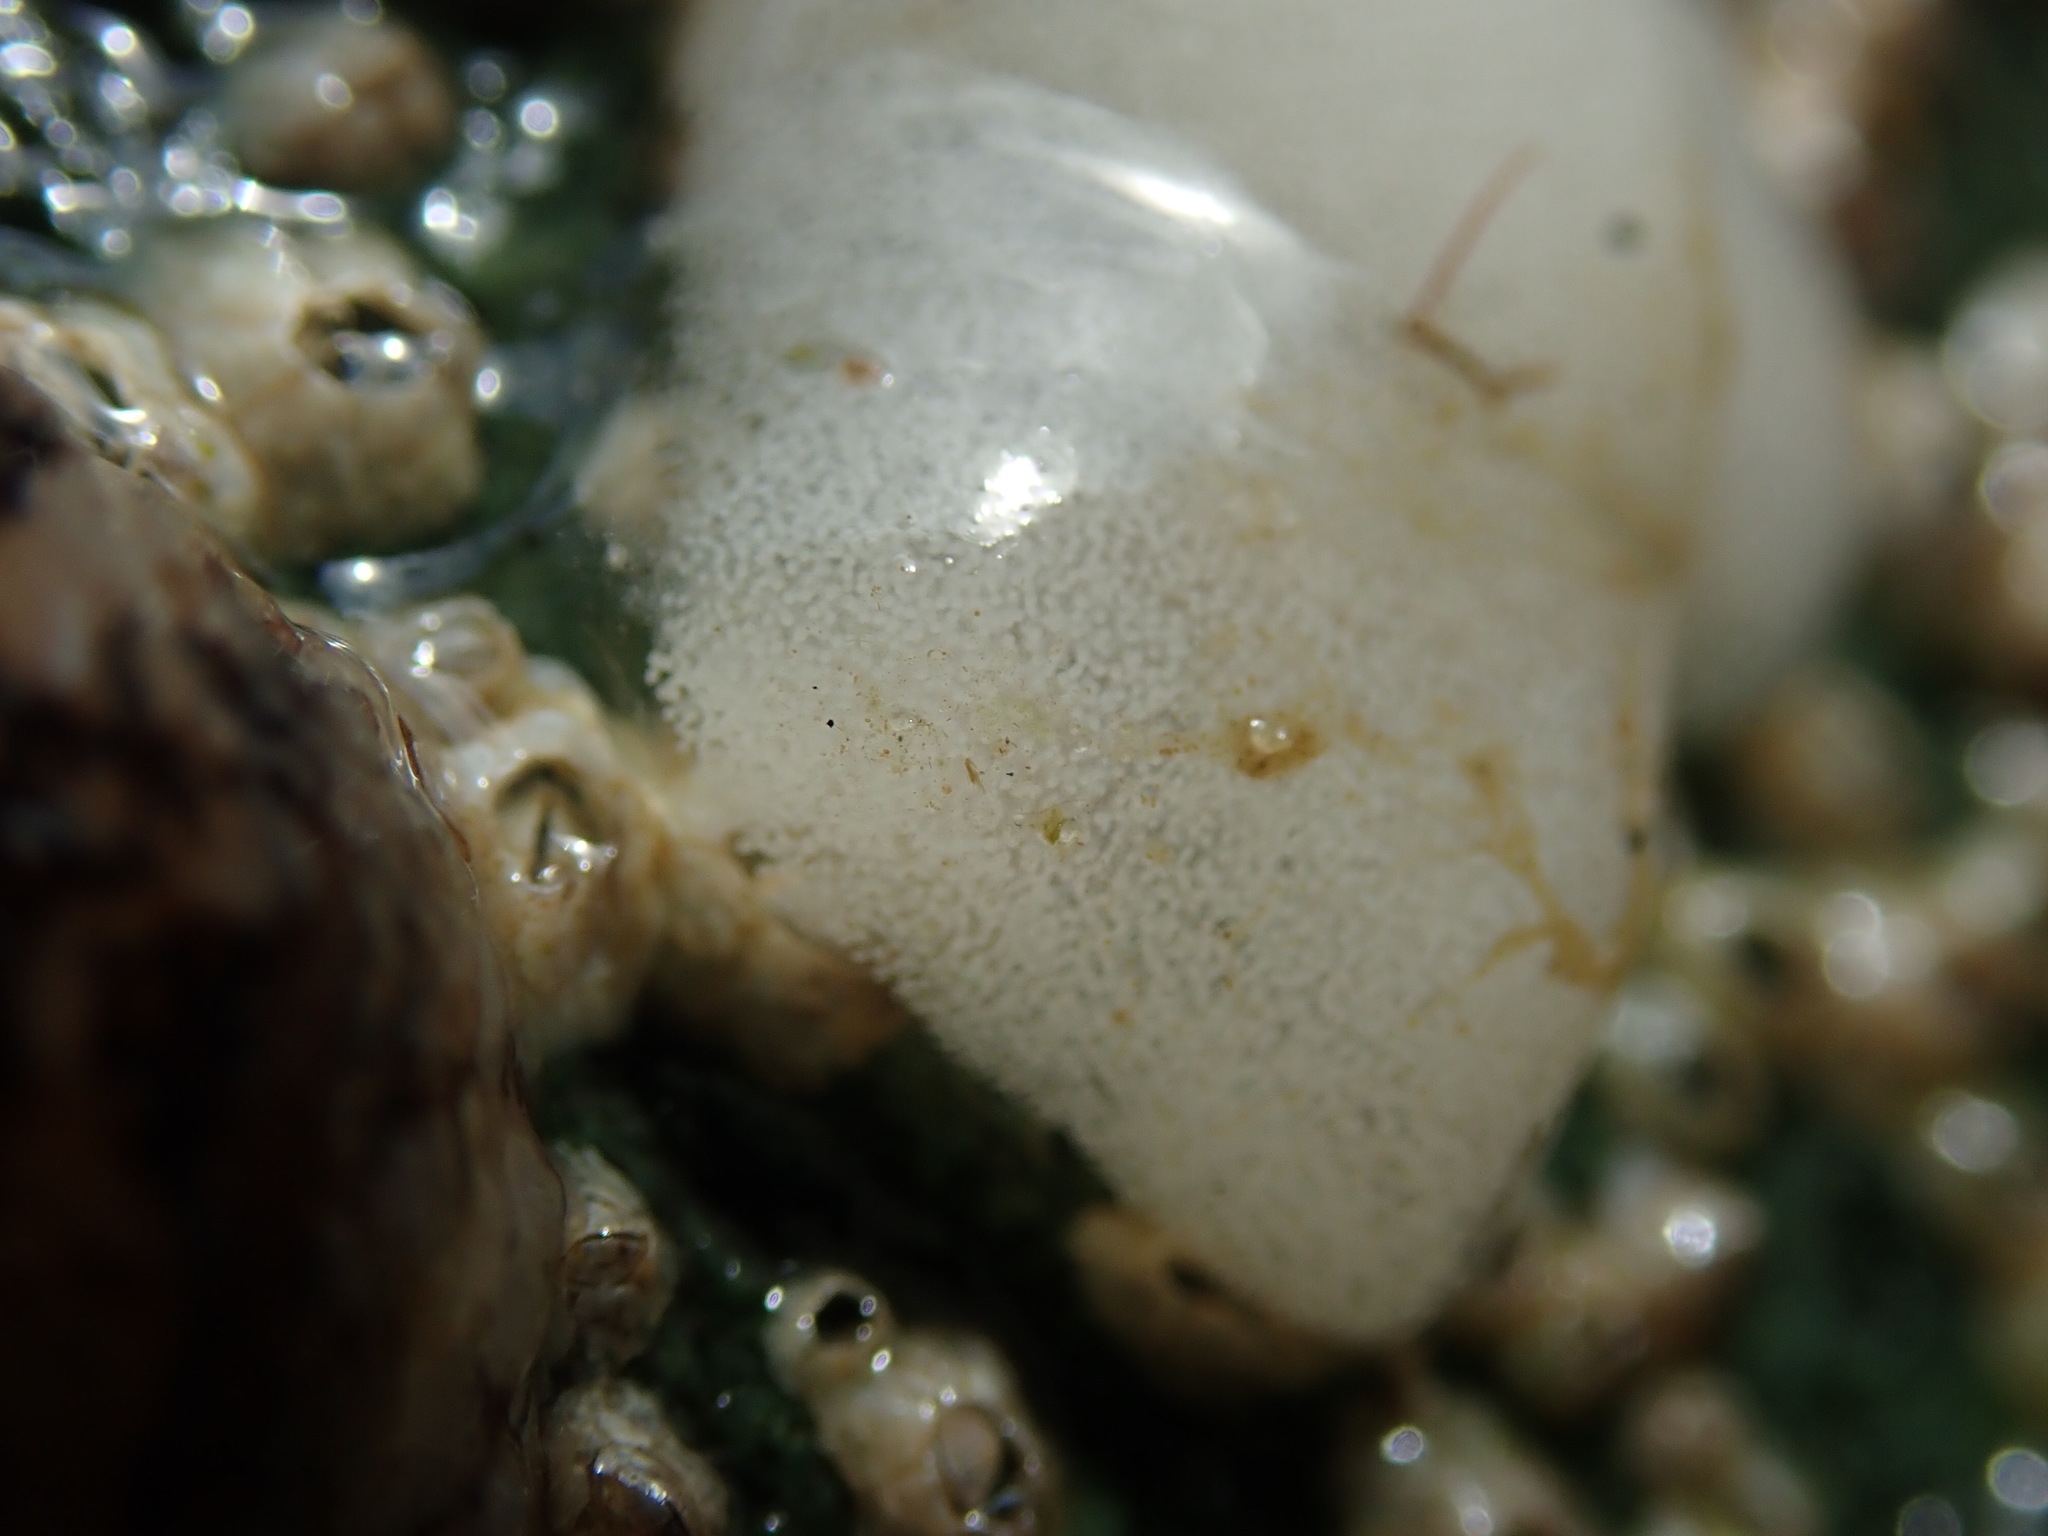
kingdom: Animalia
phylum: Mollusca
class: Gastropoda
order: Nudibranchia
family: Onchidorididae
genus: Onchidoris
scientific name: Onchidoris bilamellata
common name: Barnacle-eating onchidoris
